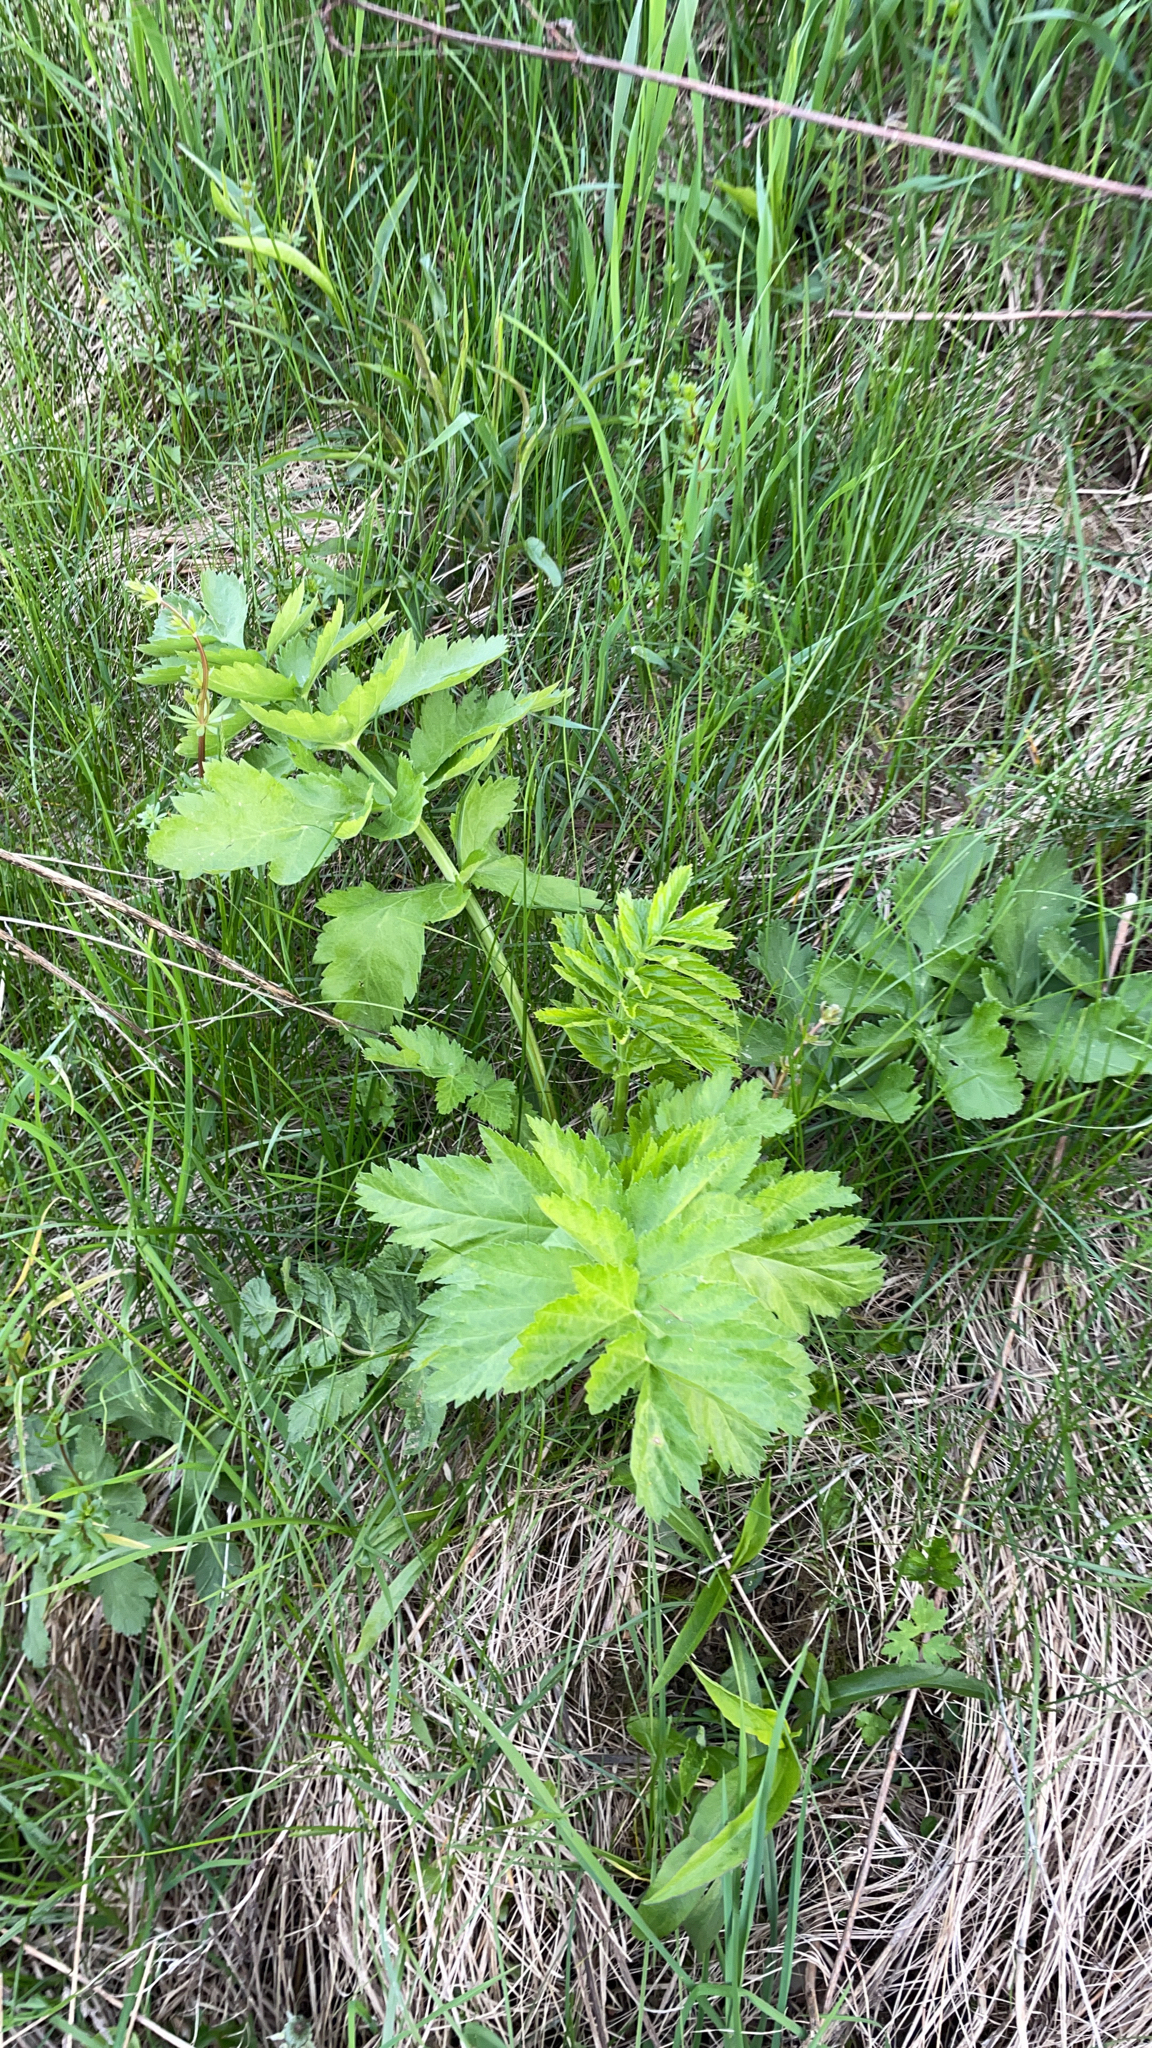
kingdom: Plantae
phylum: Tracheophyta
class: Magnoliopsida
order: Apiales
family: Apiaceae
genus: Pastinaca
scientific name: Pastinaca sativa
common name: Wild parsnip
